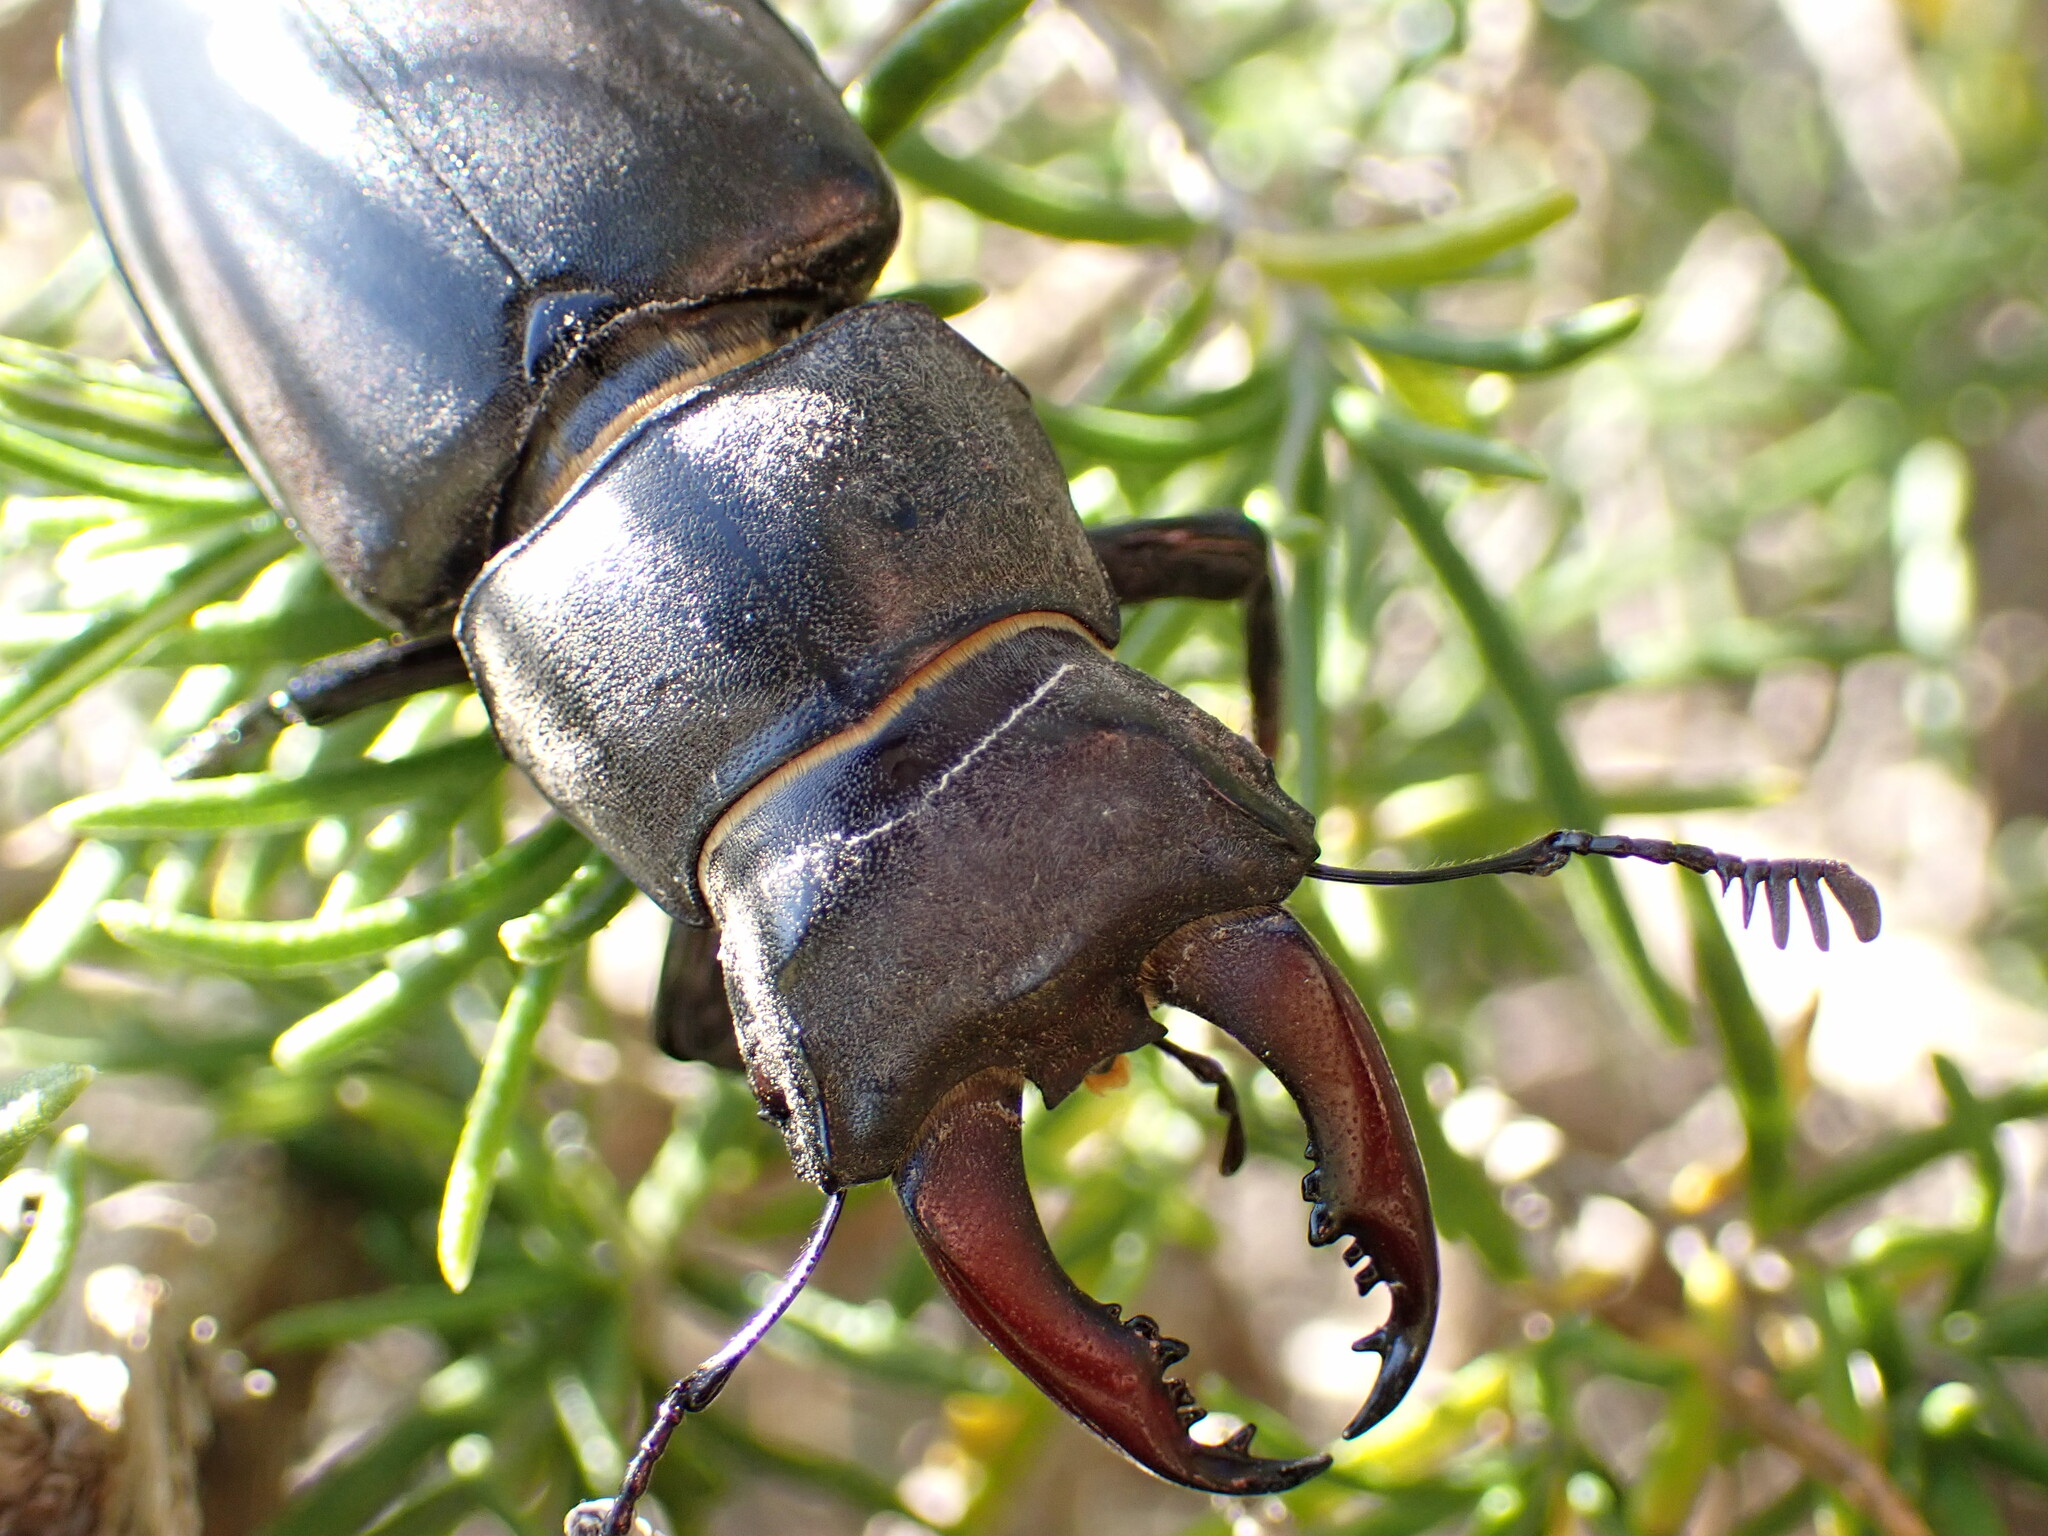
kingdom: Animalia
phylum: Arthropoda
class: Insecta
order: Coleoptera
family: Lucanidae
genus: Lucanus
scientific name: Lucanus cervus
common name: Stag beetle
